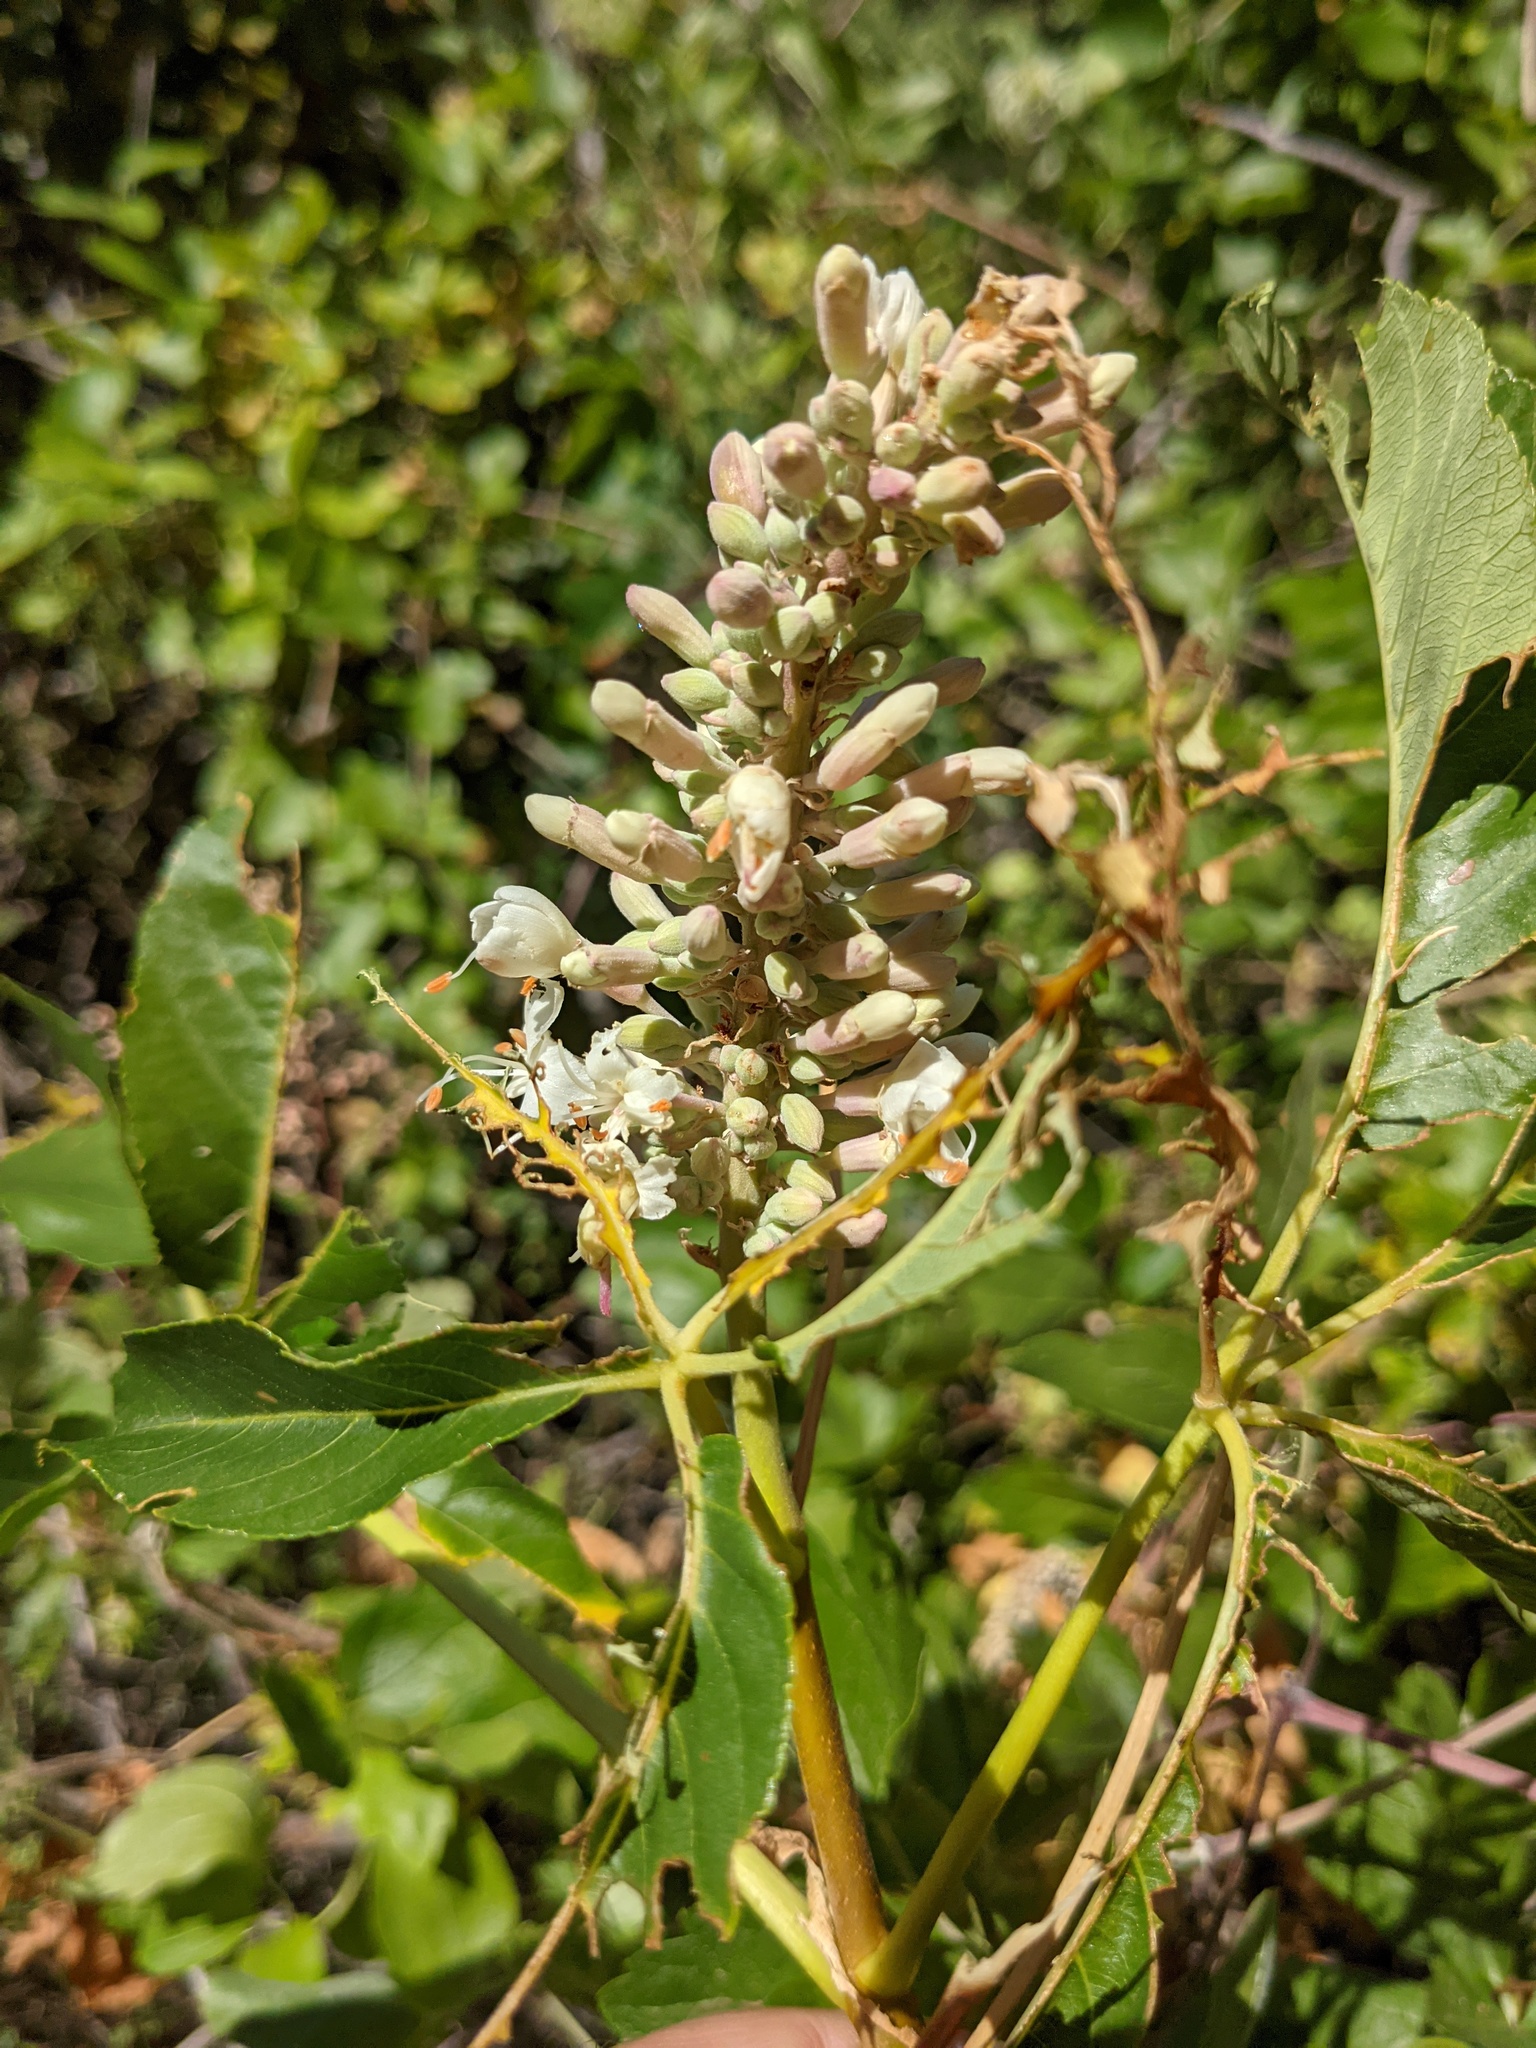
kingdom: Plantae
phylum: Tracheophyta
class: Magnoliopsida
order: Sapindales
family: Sapindaceae
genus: Aesculus
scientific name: Aesculus californica
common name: California buckeye
